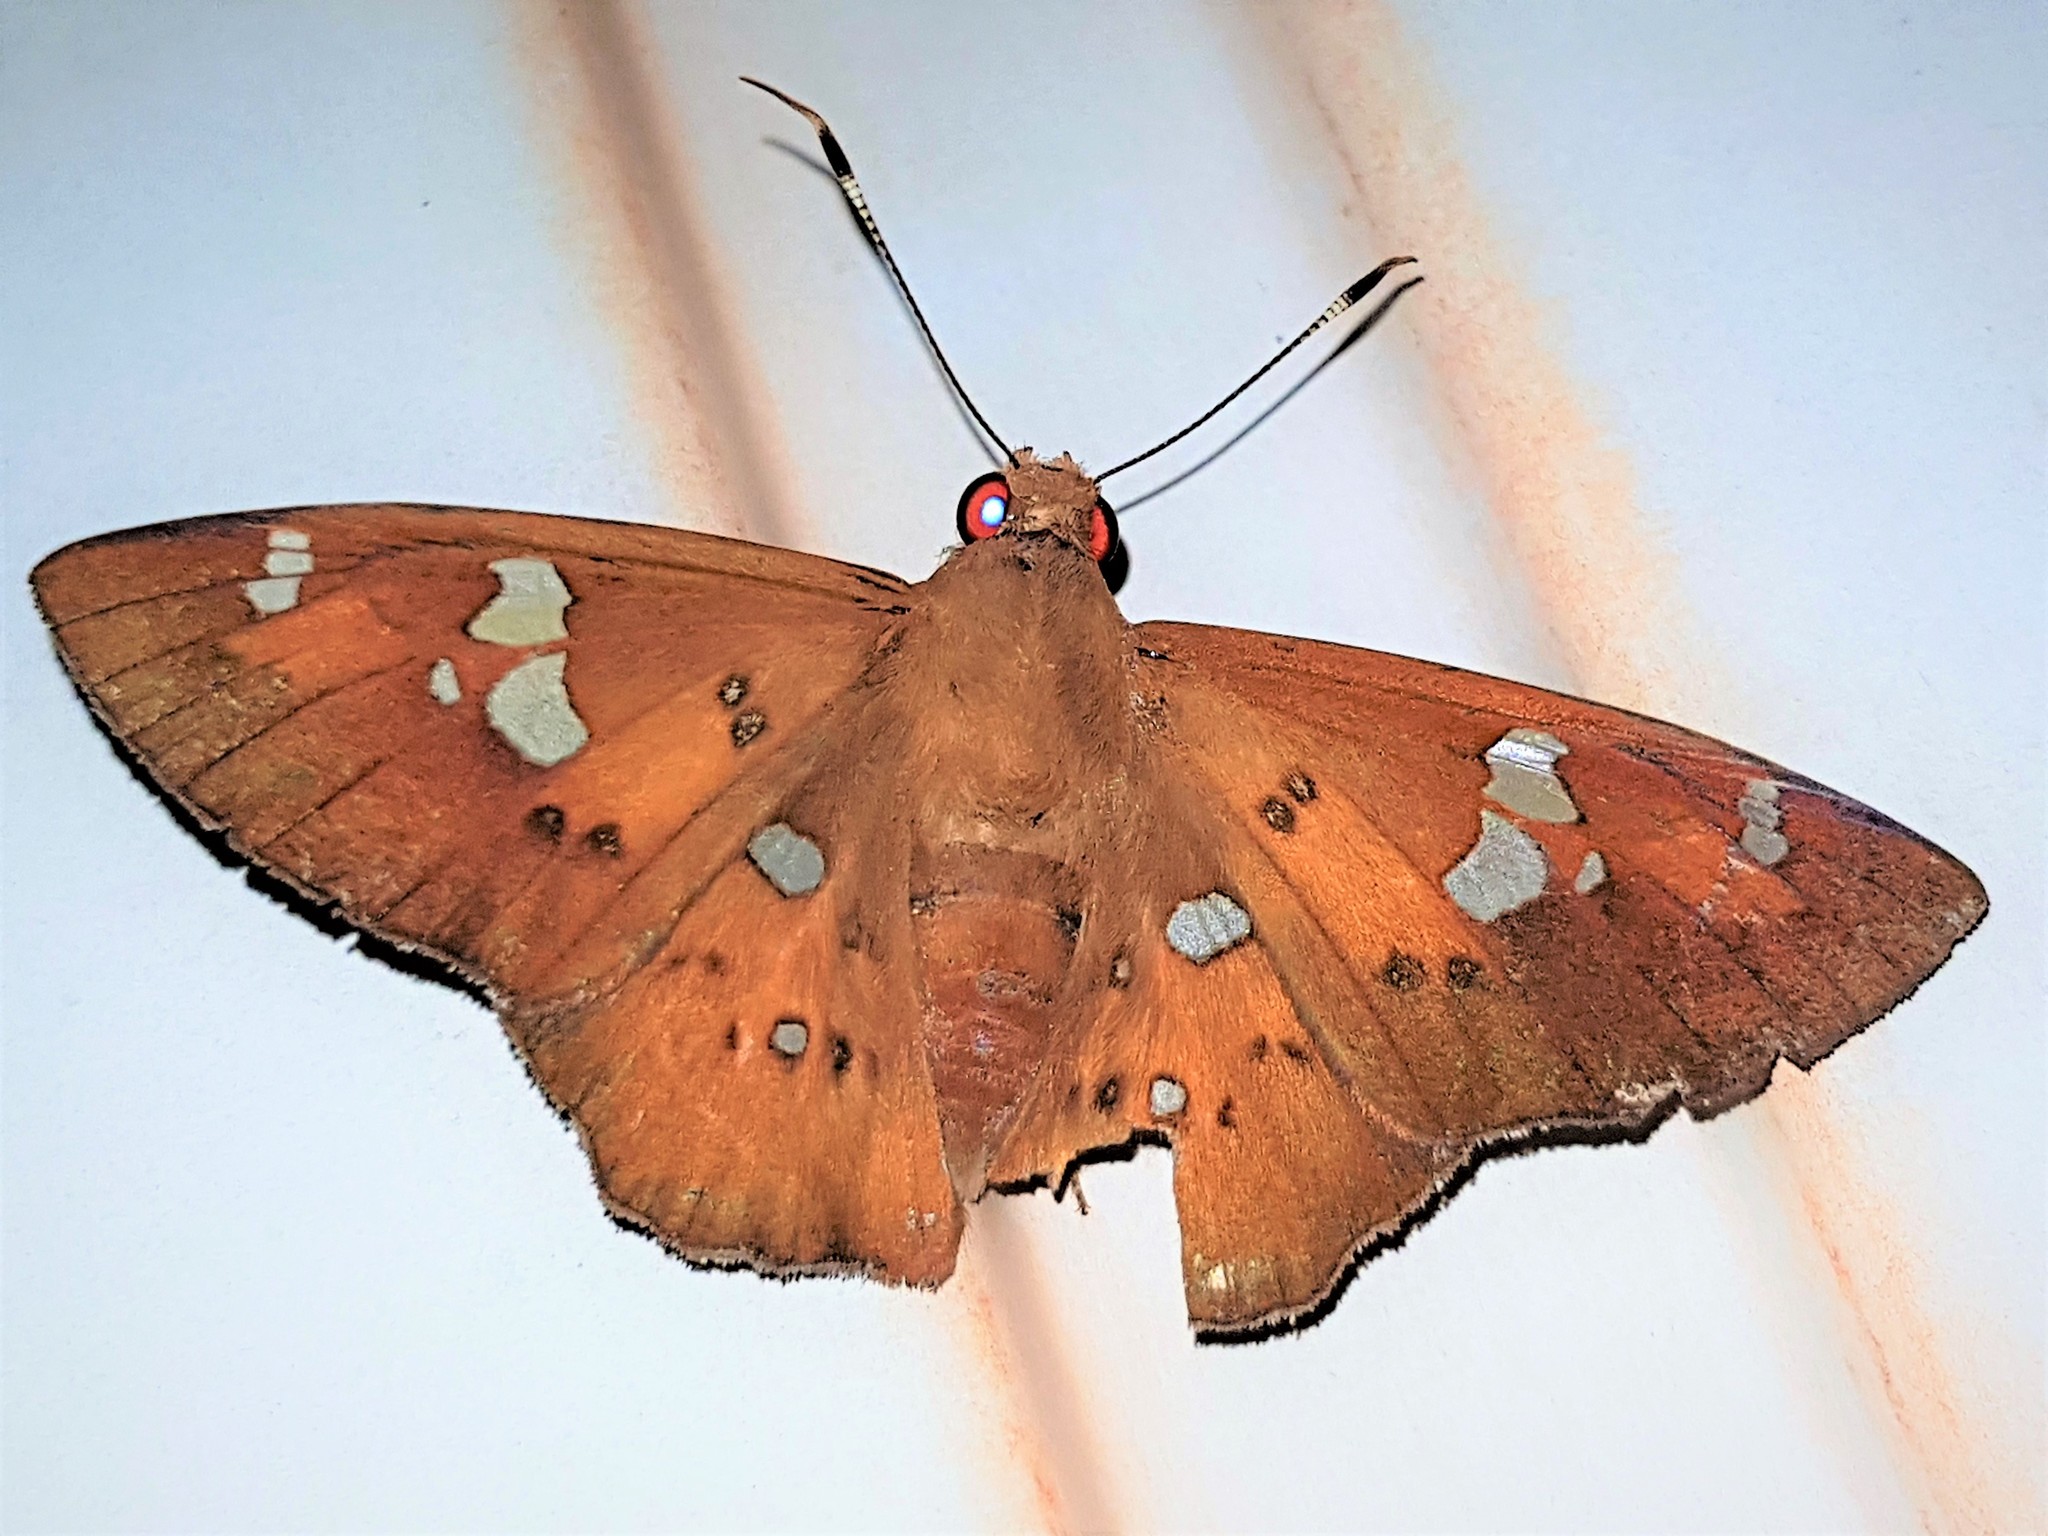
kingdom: Animalia
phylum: Arthropoda
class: Insecta
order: Lepidoptera
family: Hesperiidae
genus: Dyscophellus
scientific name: Dyscophellus porcius
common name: Fiery scarlet-eye
